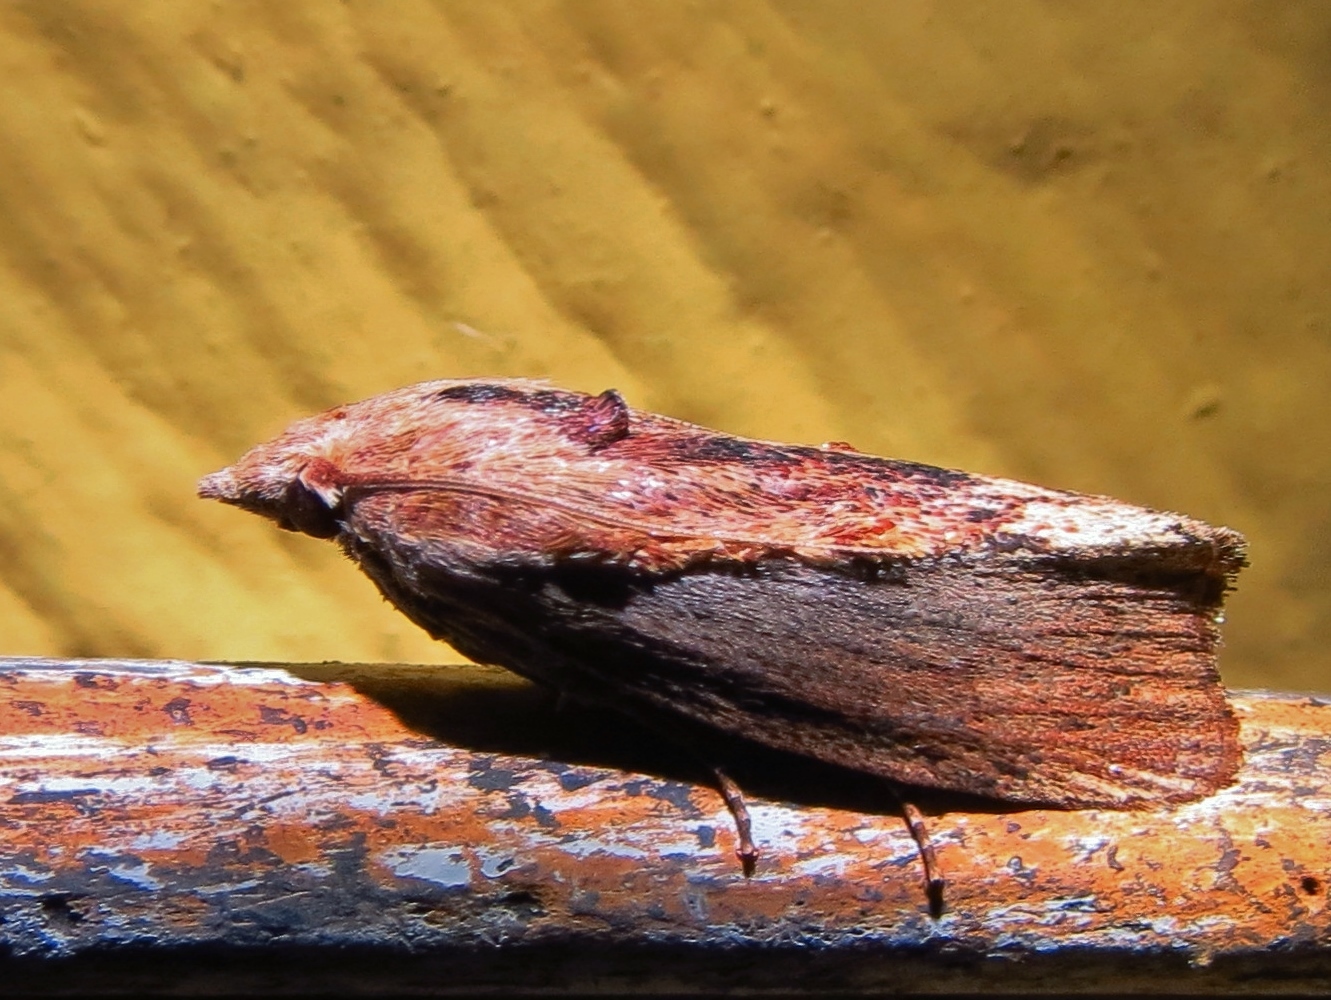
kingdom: Animalia
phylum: Arthropoda
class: Insecta
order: Lepidoptera
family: Pyralidae
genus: Galleria
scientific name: Galleria mellonella
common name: Greater wax moth
